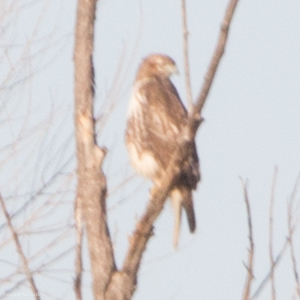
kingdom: Animalia
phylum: Chordata
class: Aves
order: Accipitriformes
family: Accipitridae
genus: Buteo
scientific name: Buteo jamaicensis
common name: Red-tailed hawk
